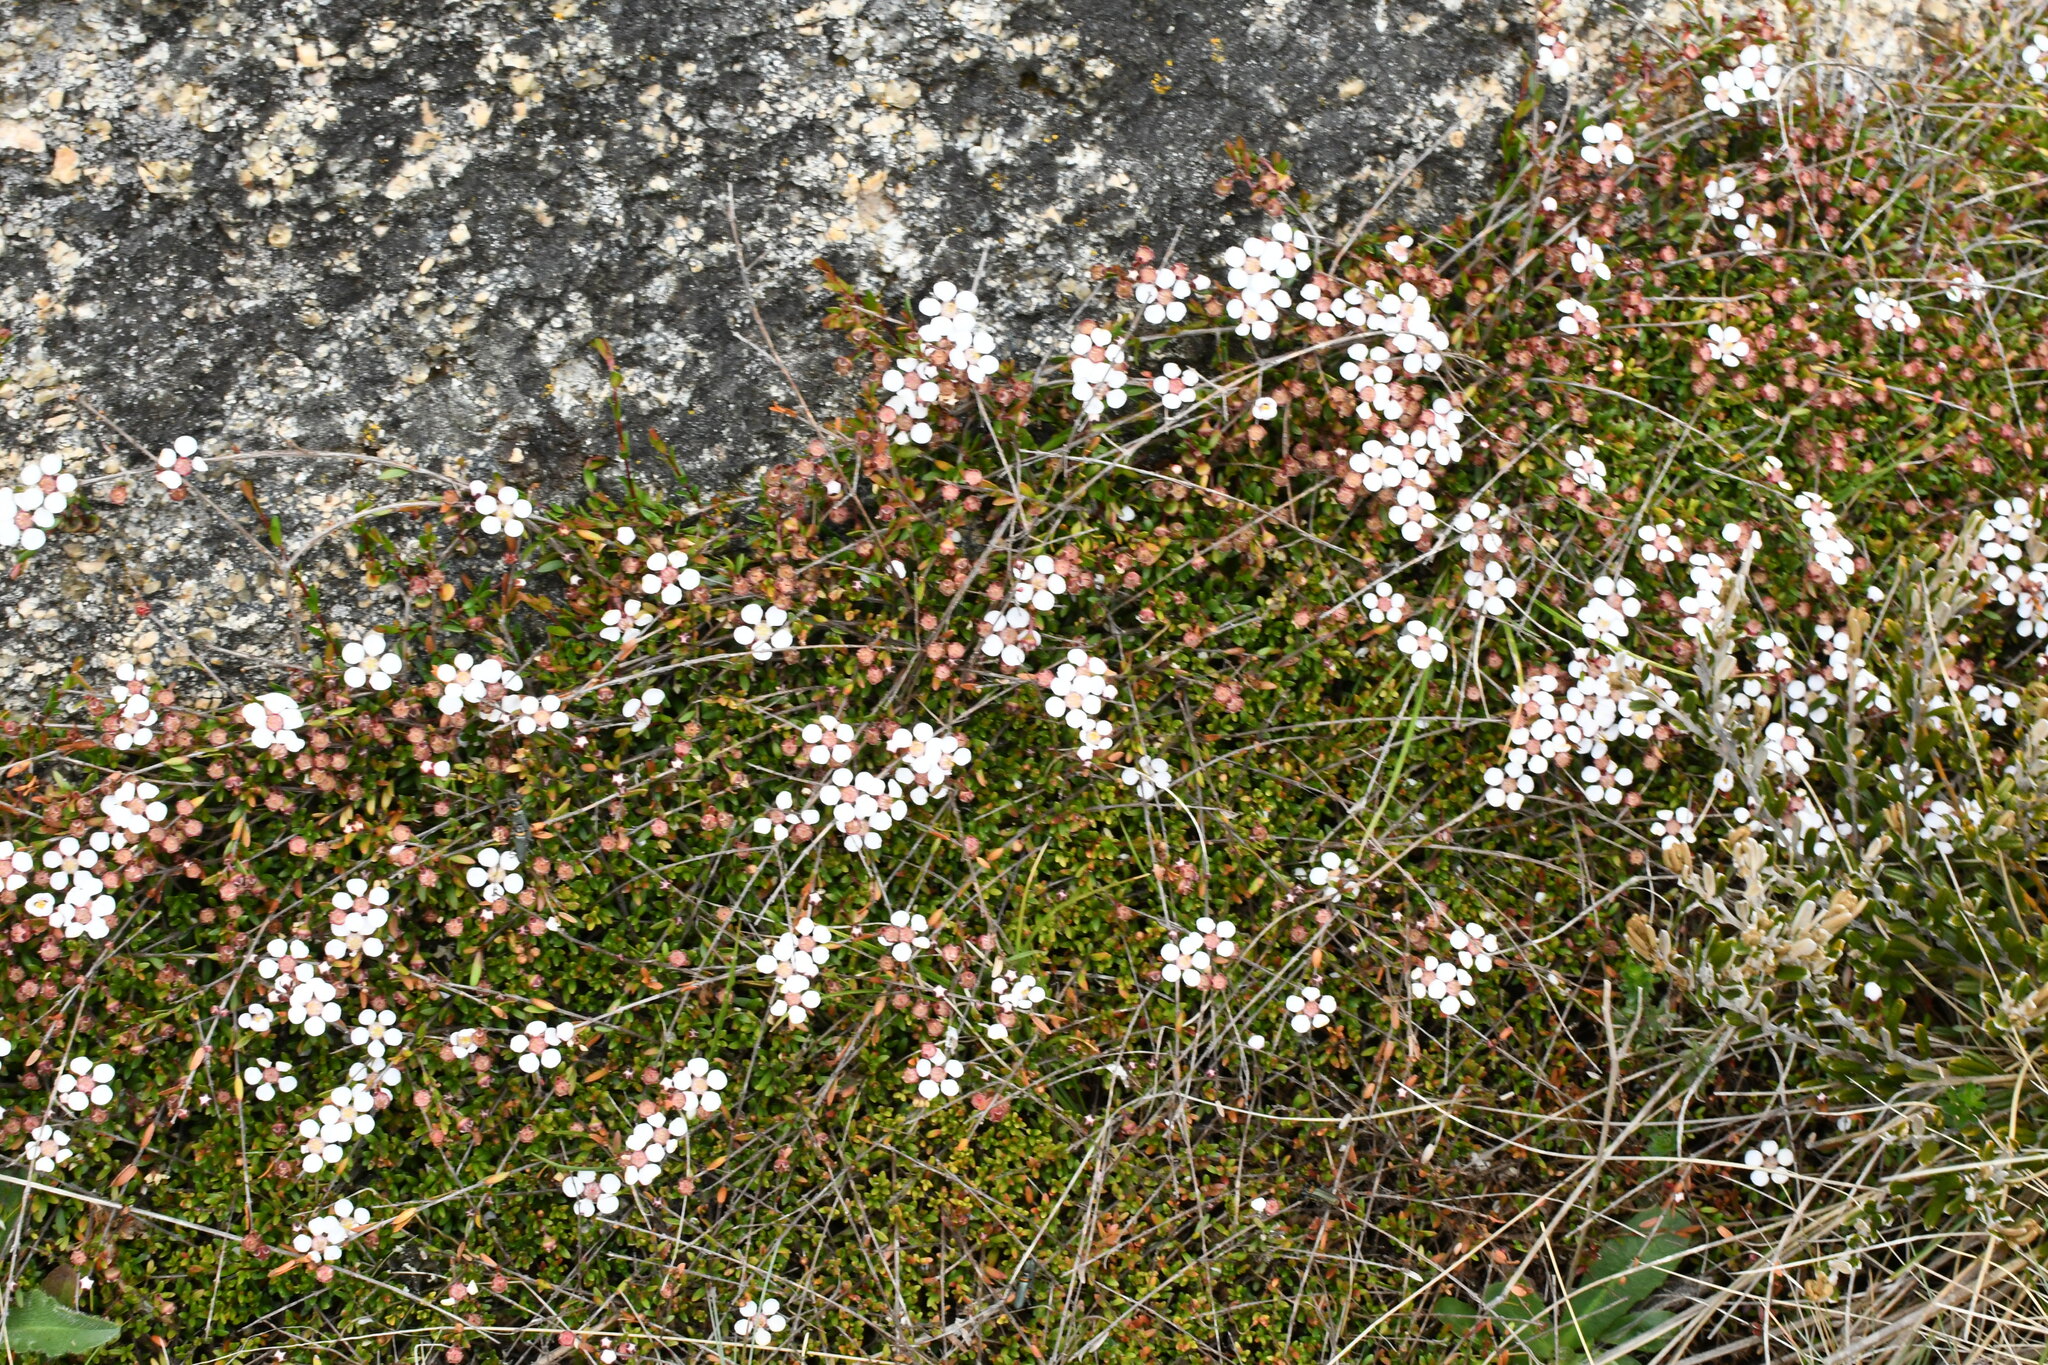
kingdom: Plantae
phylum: Tracheophyta
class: Magnoliopsida
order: Myrtales
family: Myrtaceae
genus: Euryomyrtus
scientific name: Euryomyrtus ramosissima
